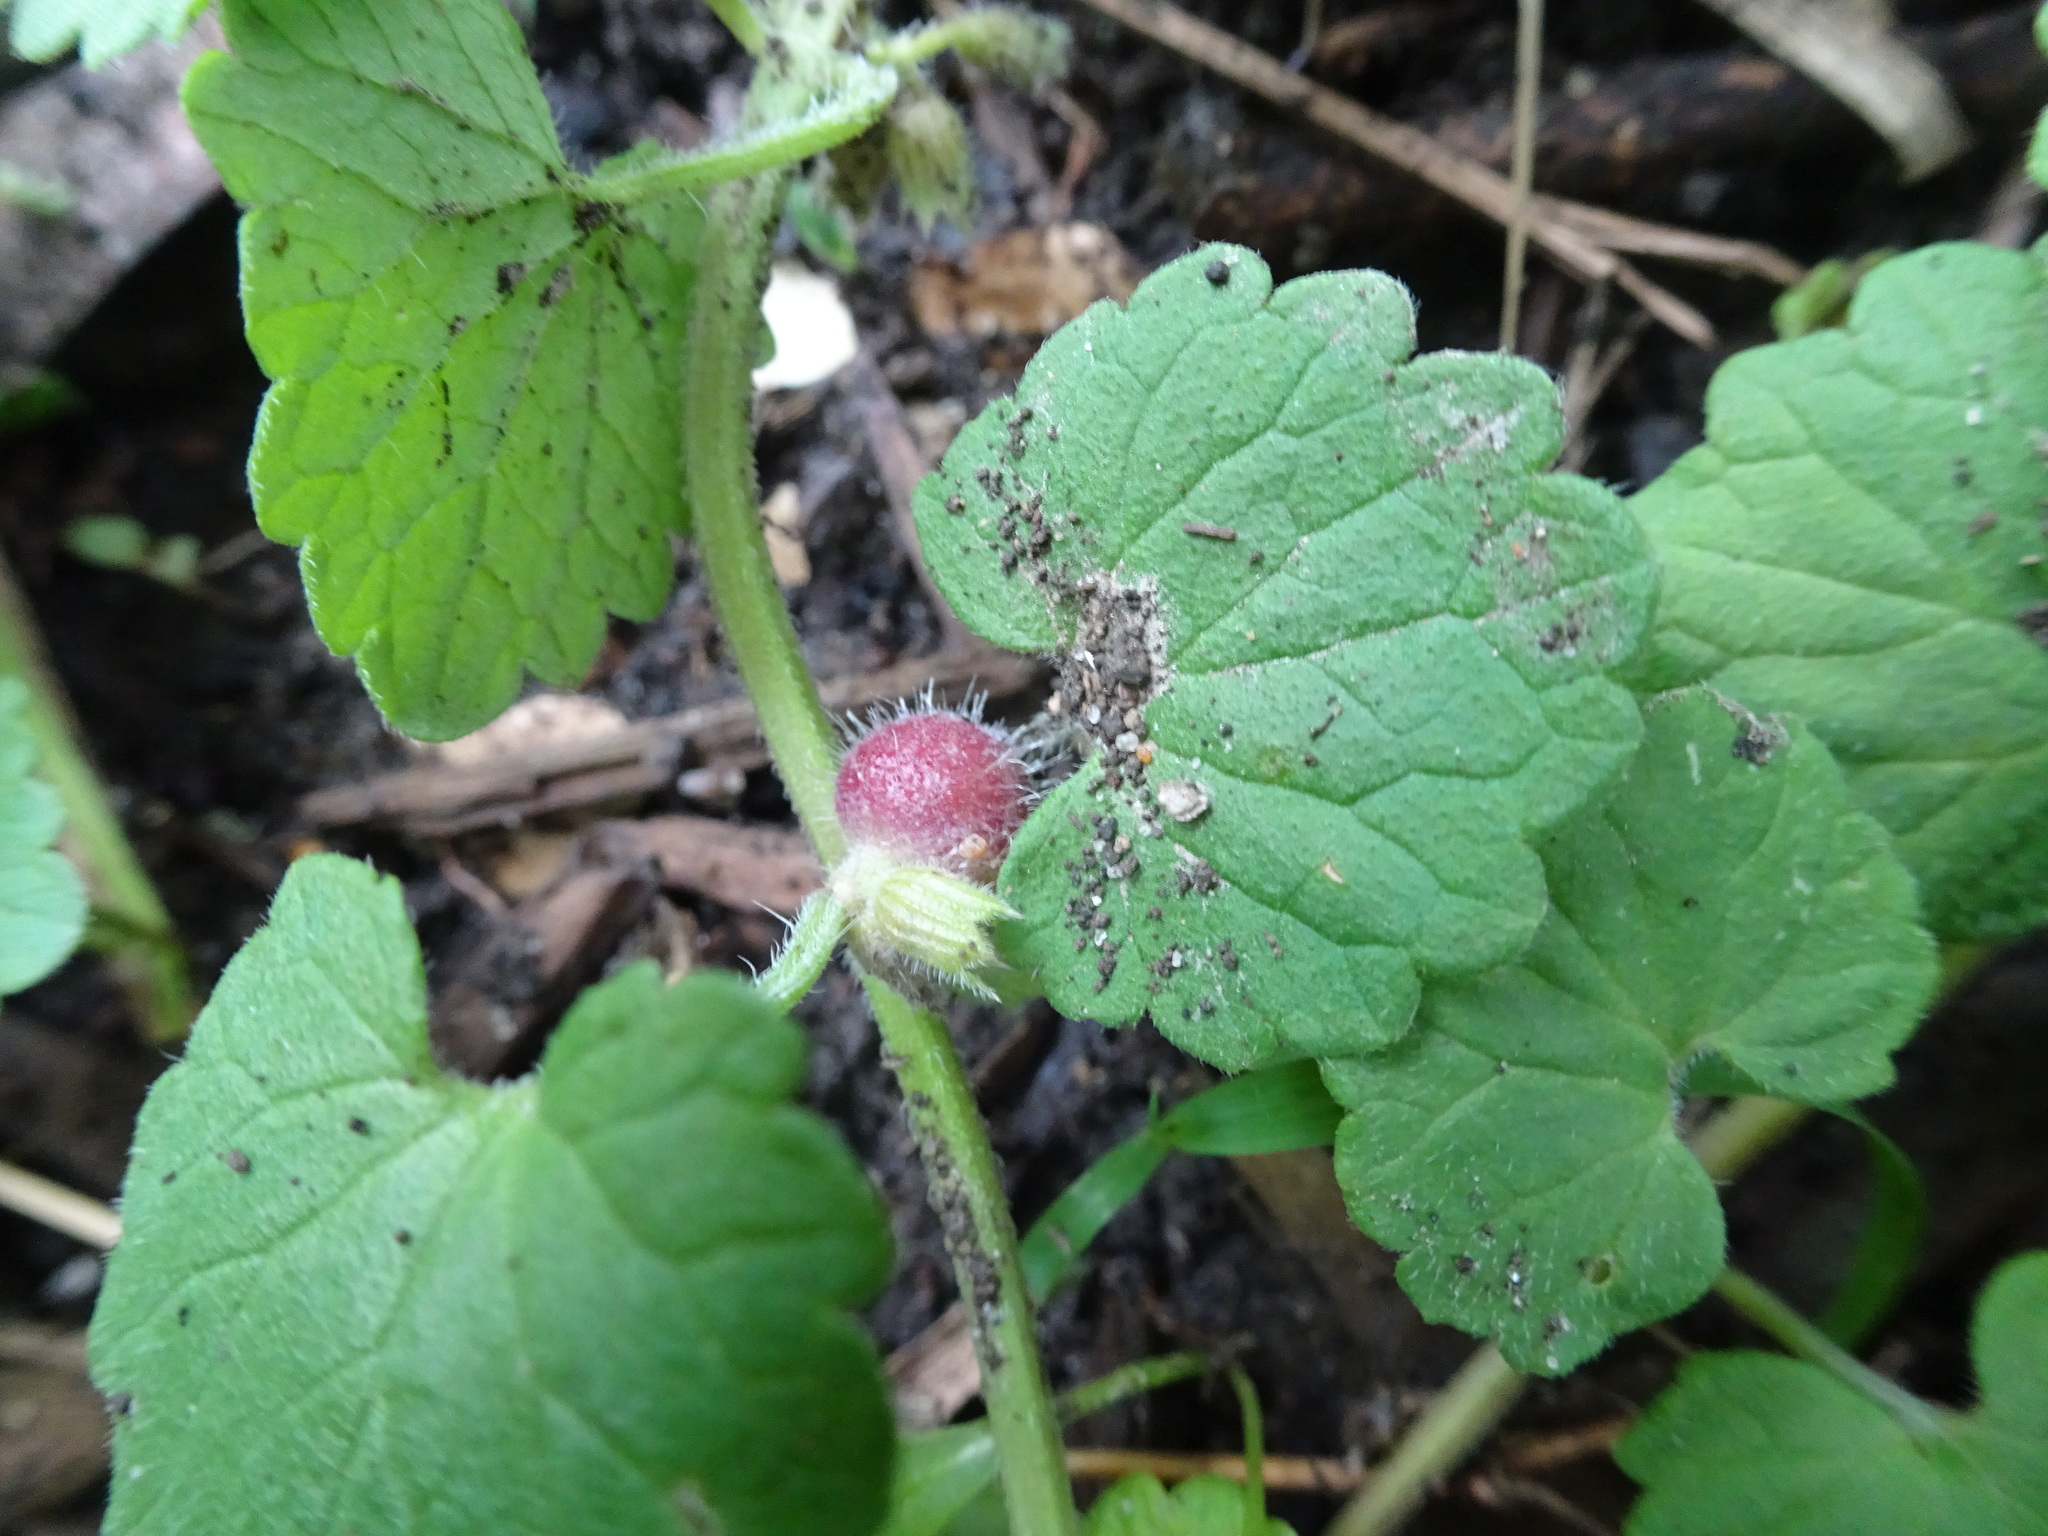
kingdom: Animalia
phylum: Arthropoda
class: Insecta
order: Hymenoptera
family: Cynipidae
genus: Liposthenes
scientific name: Liposthenes glechomae
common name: Gall wasp
